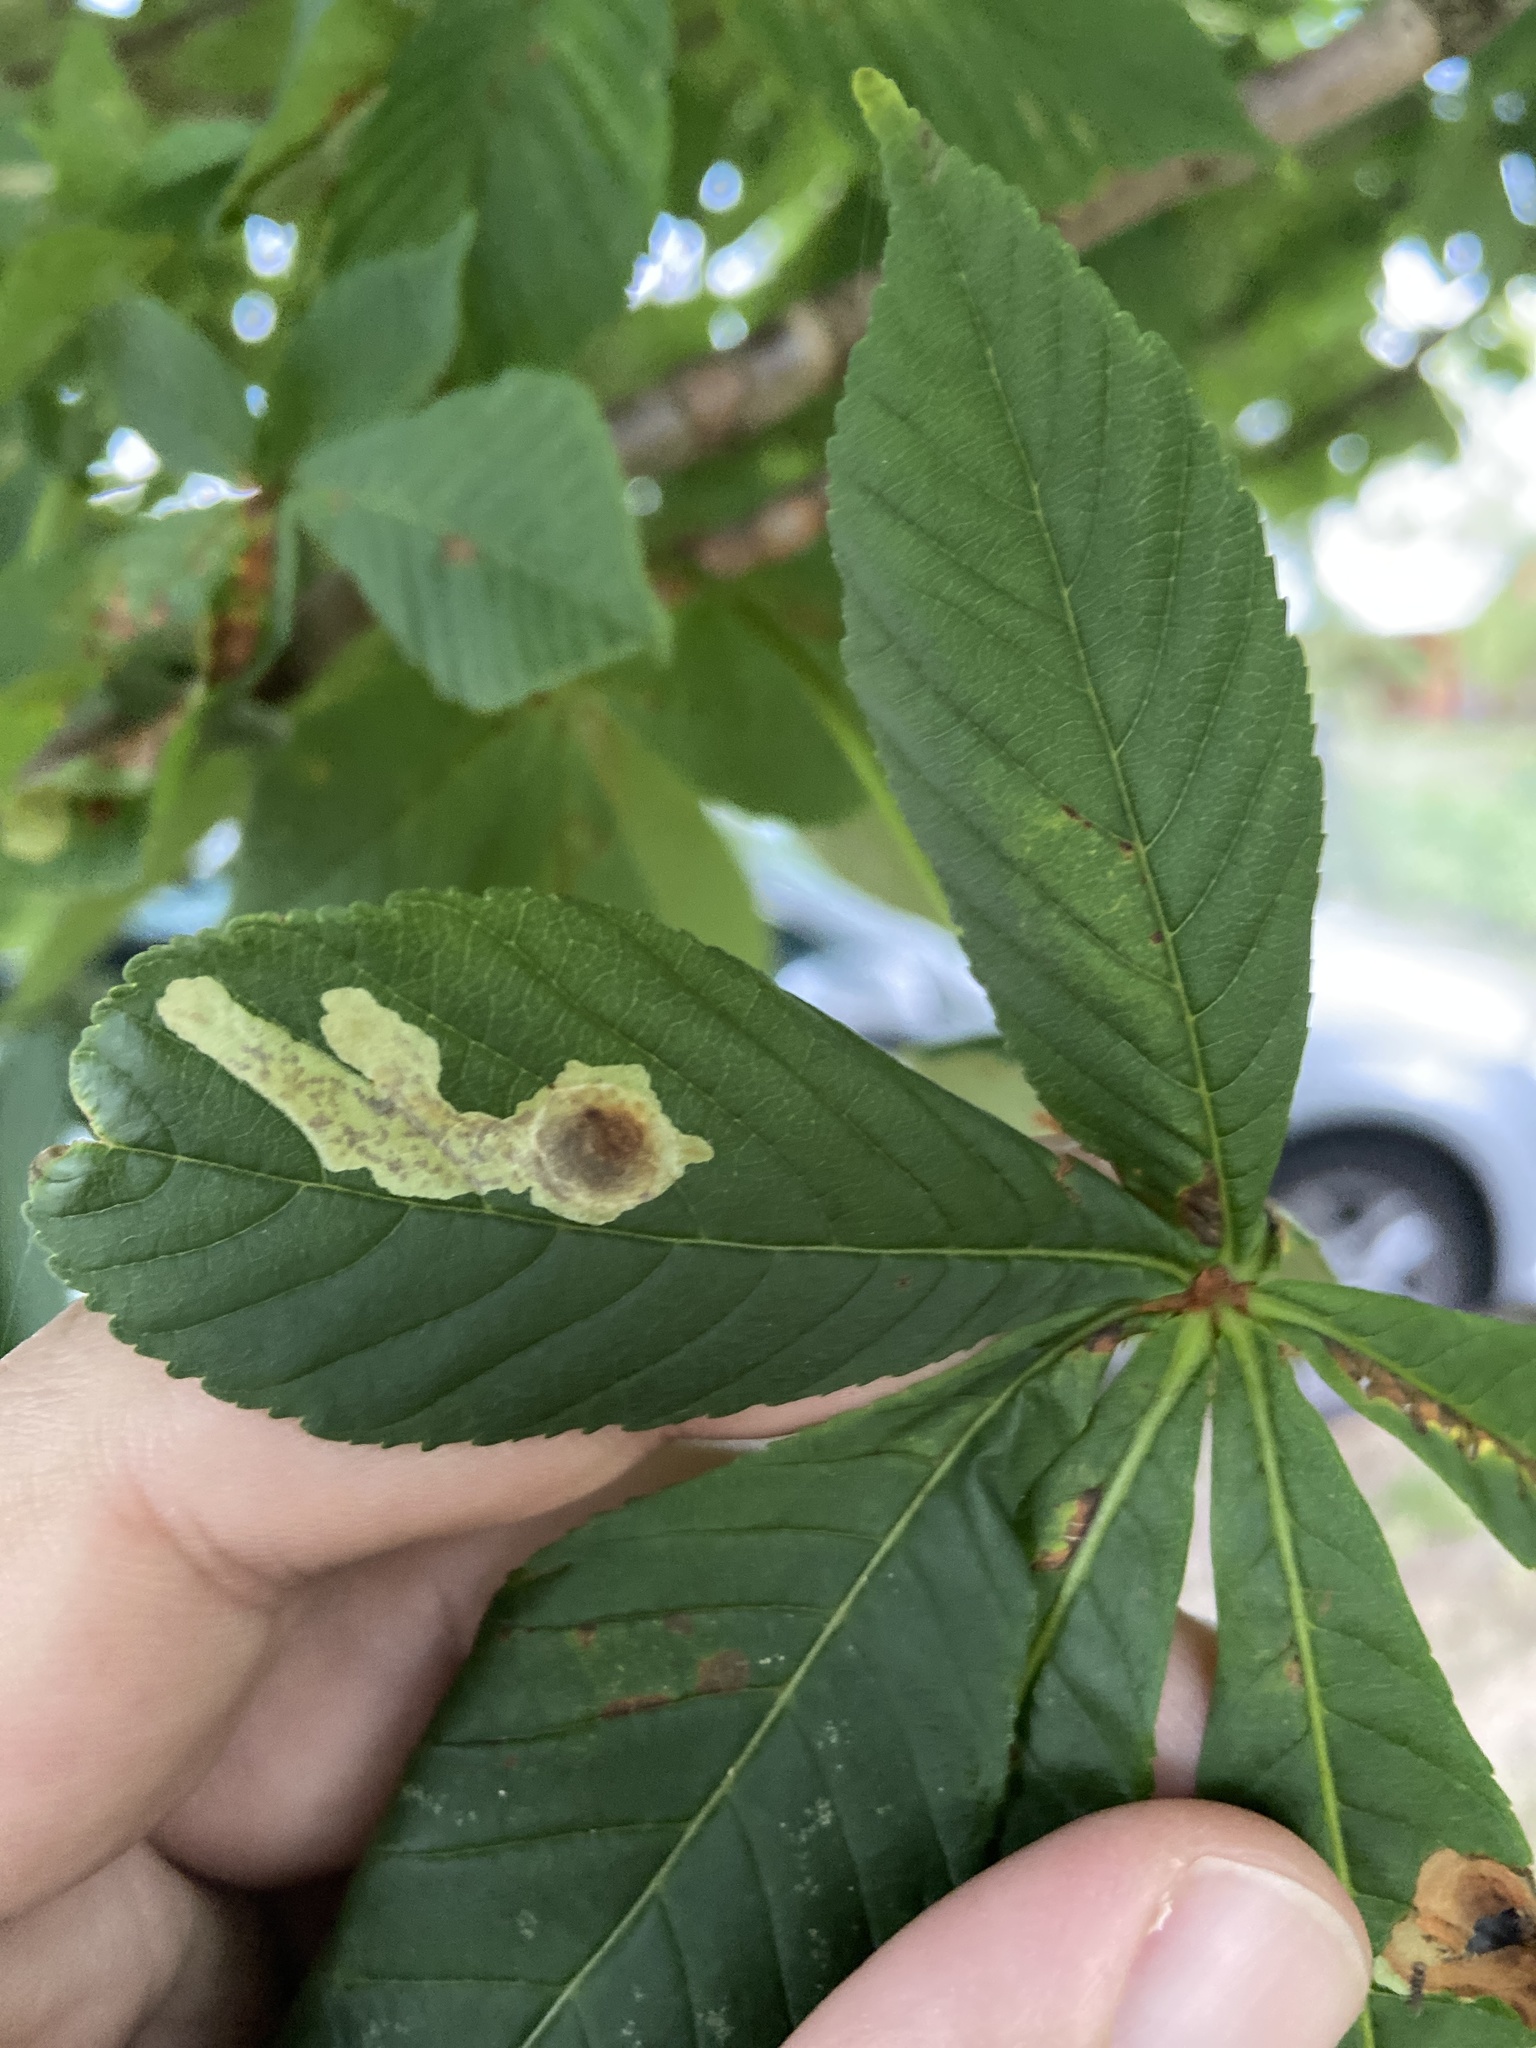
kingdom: Animalia
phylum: Arthropoda
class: Insecta
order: Lepidoptera
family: Gracillariidae
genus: Cameraria
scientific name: Cameraria ohridella
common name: Horse-chestnut leaf-miner
